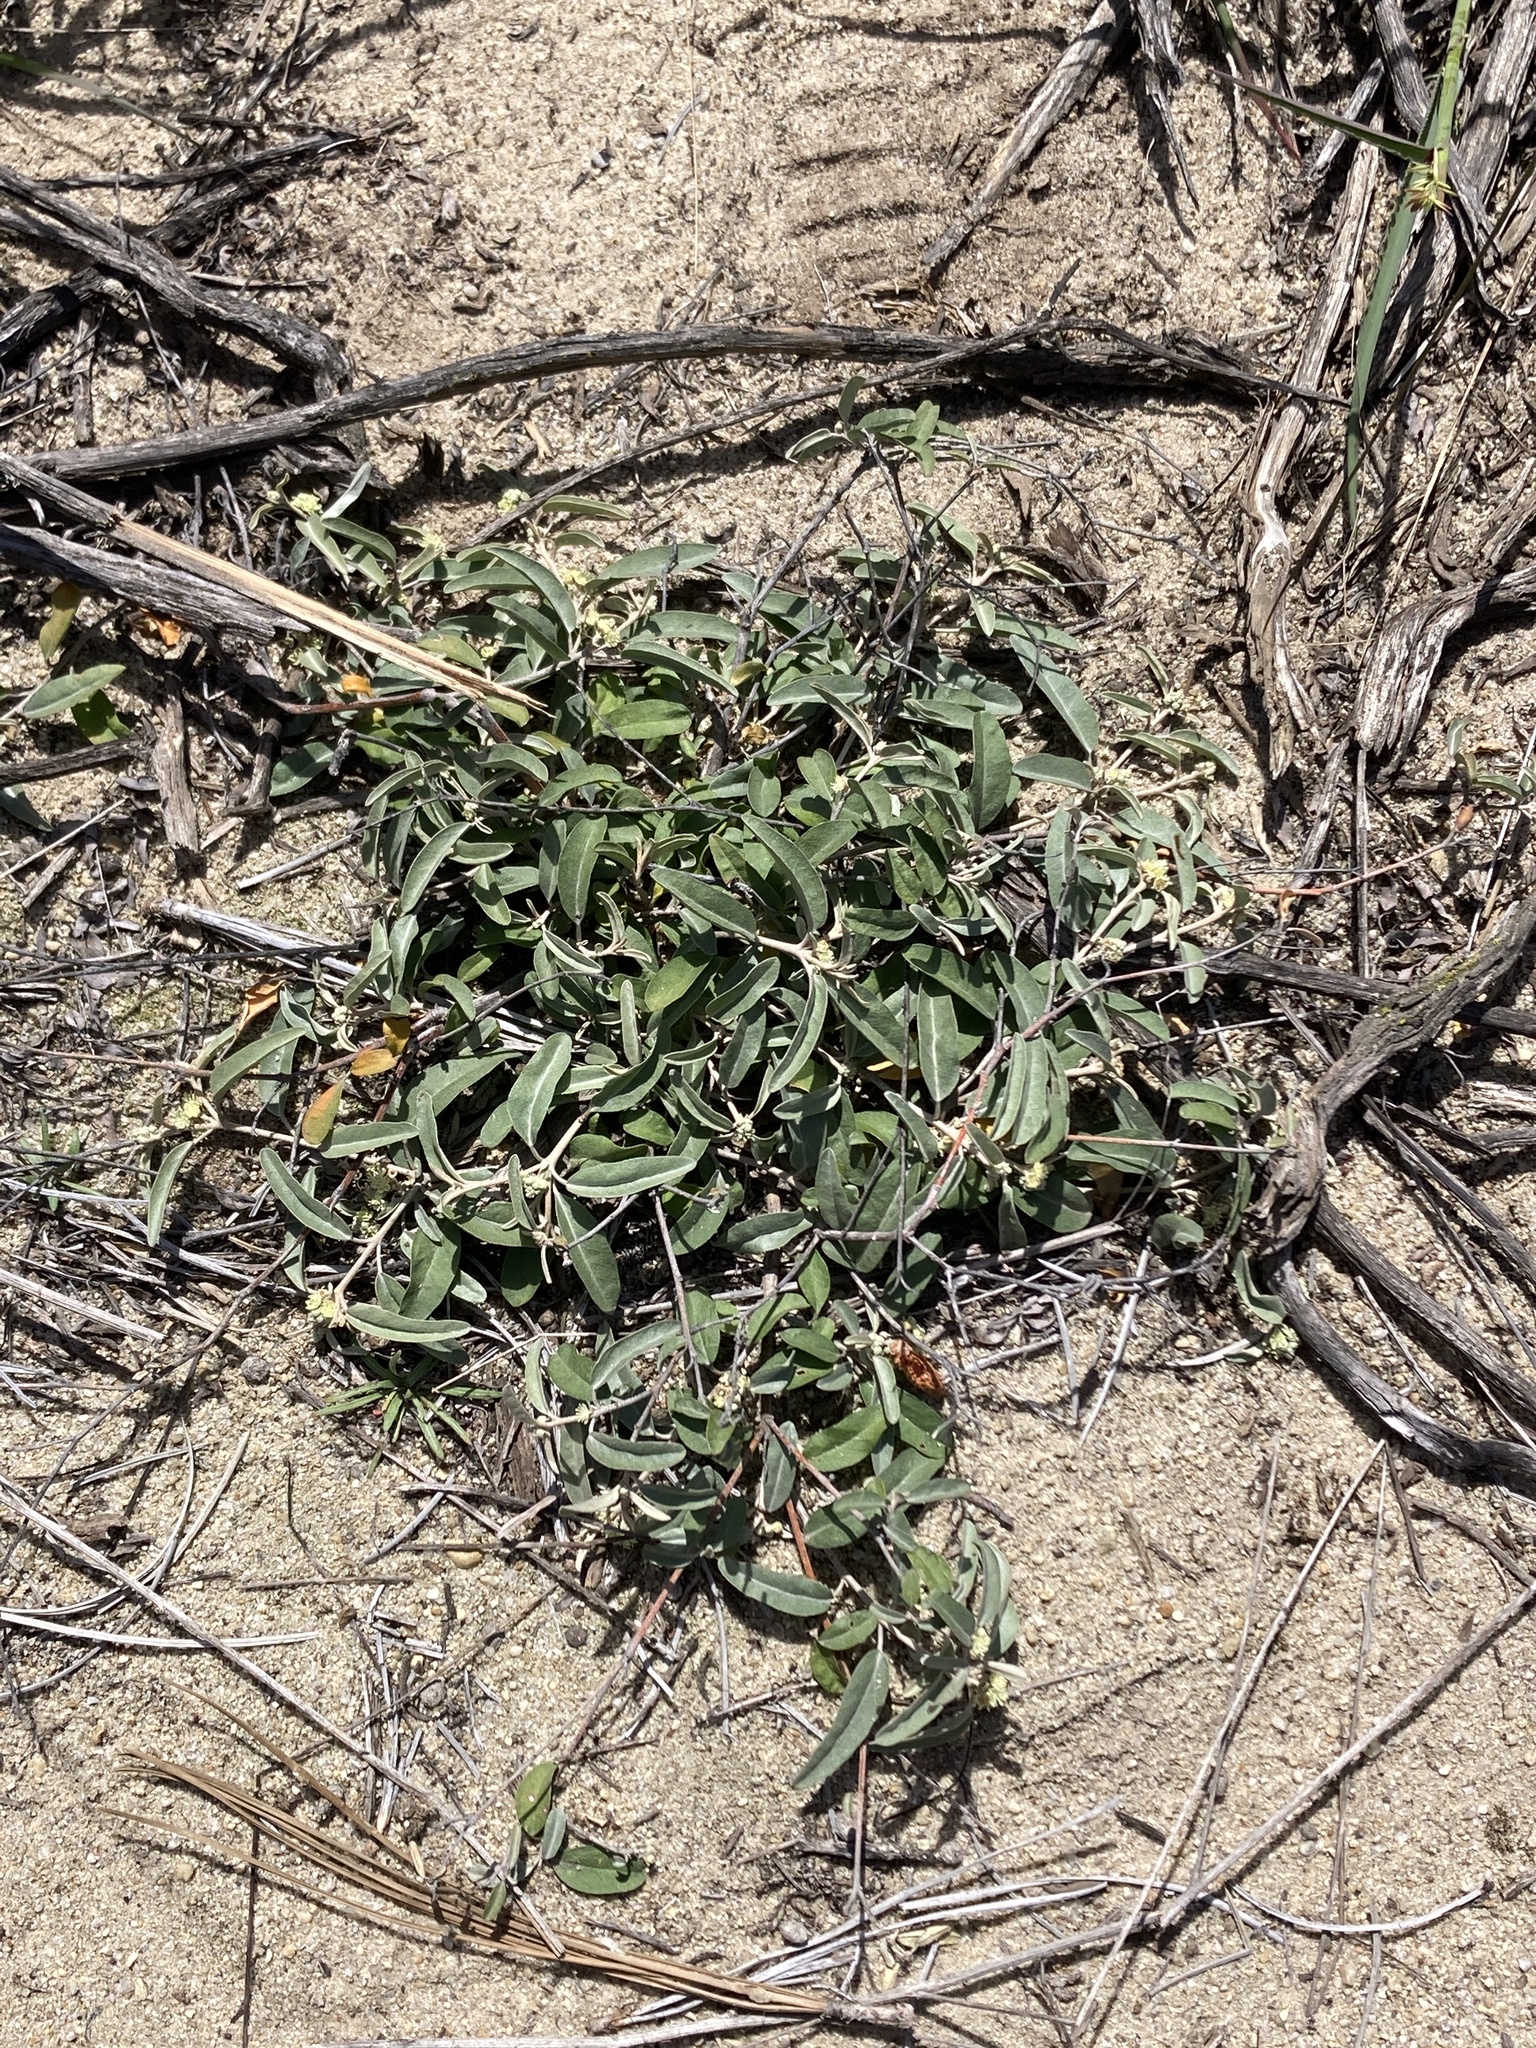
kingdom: Plantae
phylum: Tracheophyta
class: Magnoliopsida
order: Malpighiales
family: Euphorbiaceae
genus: Croton
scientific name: Croton californicus
